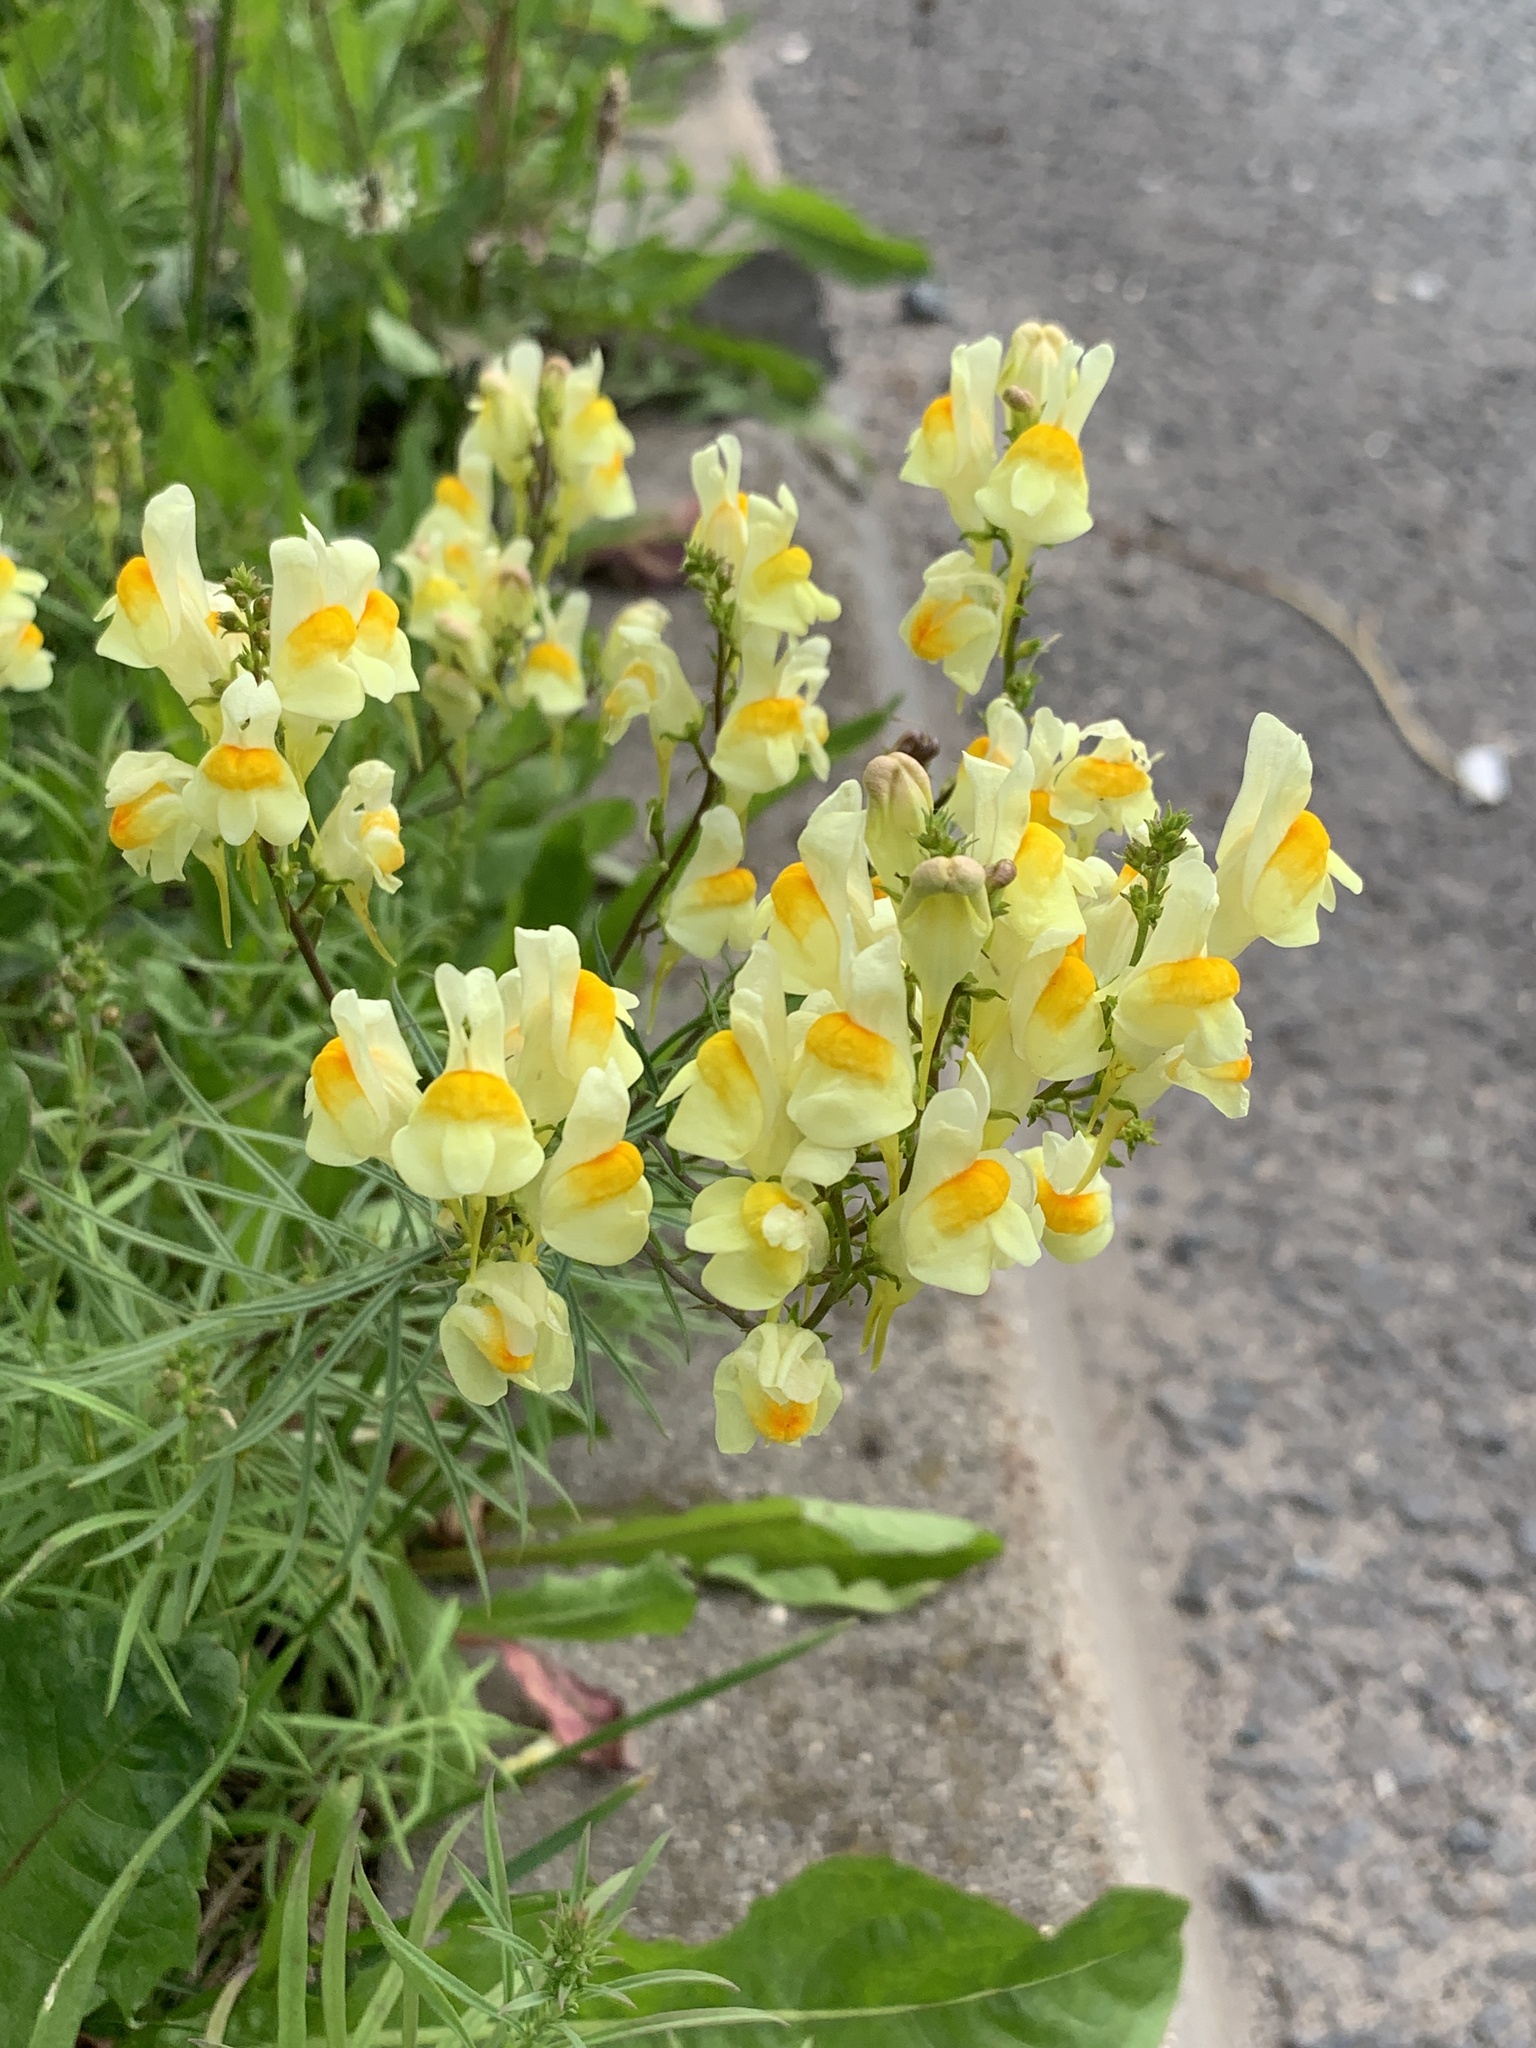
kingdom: Plantae
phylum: Tracheophyta
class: Magnoliopsida
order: Lamiales
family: Plantaginaceae
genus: Linaria
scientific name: Linaria vulgaris
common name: Butter and eggs
